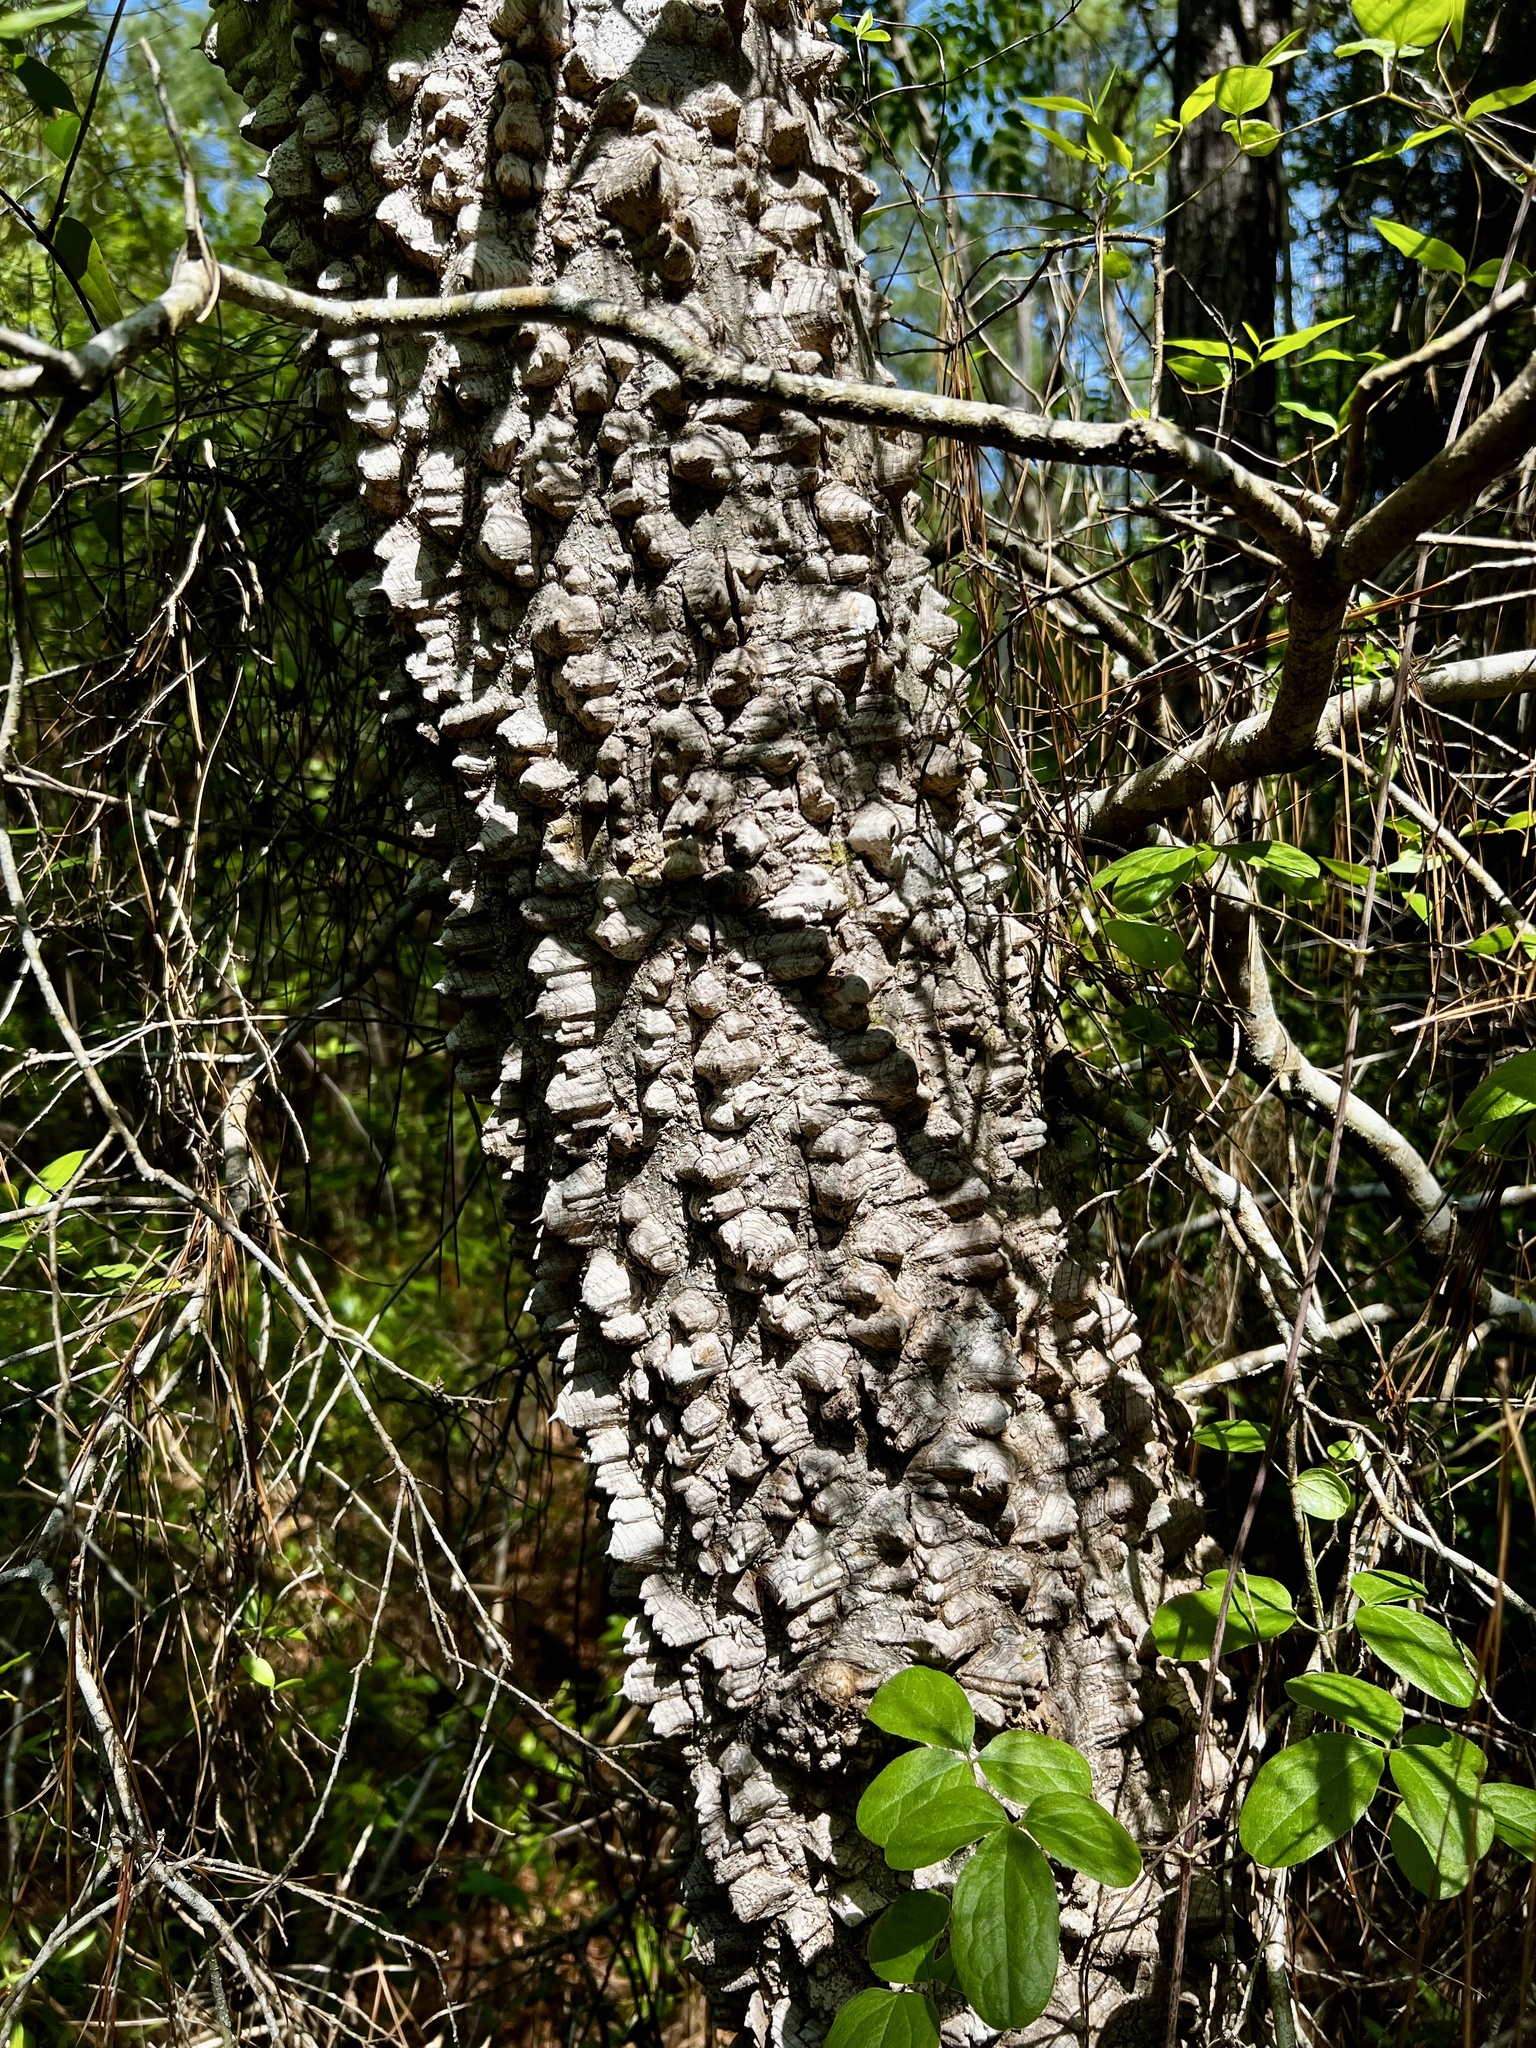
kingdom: Plantae
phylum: Tracheophyta
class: Magnoliopsida
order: Sapindales
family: Rutaceae
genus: Zanthoxylum
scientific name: Zanthoxylum clava-herculis
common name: Hercules'-club
